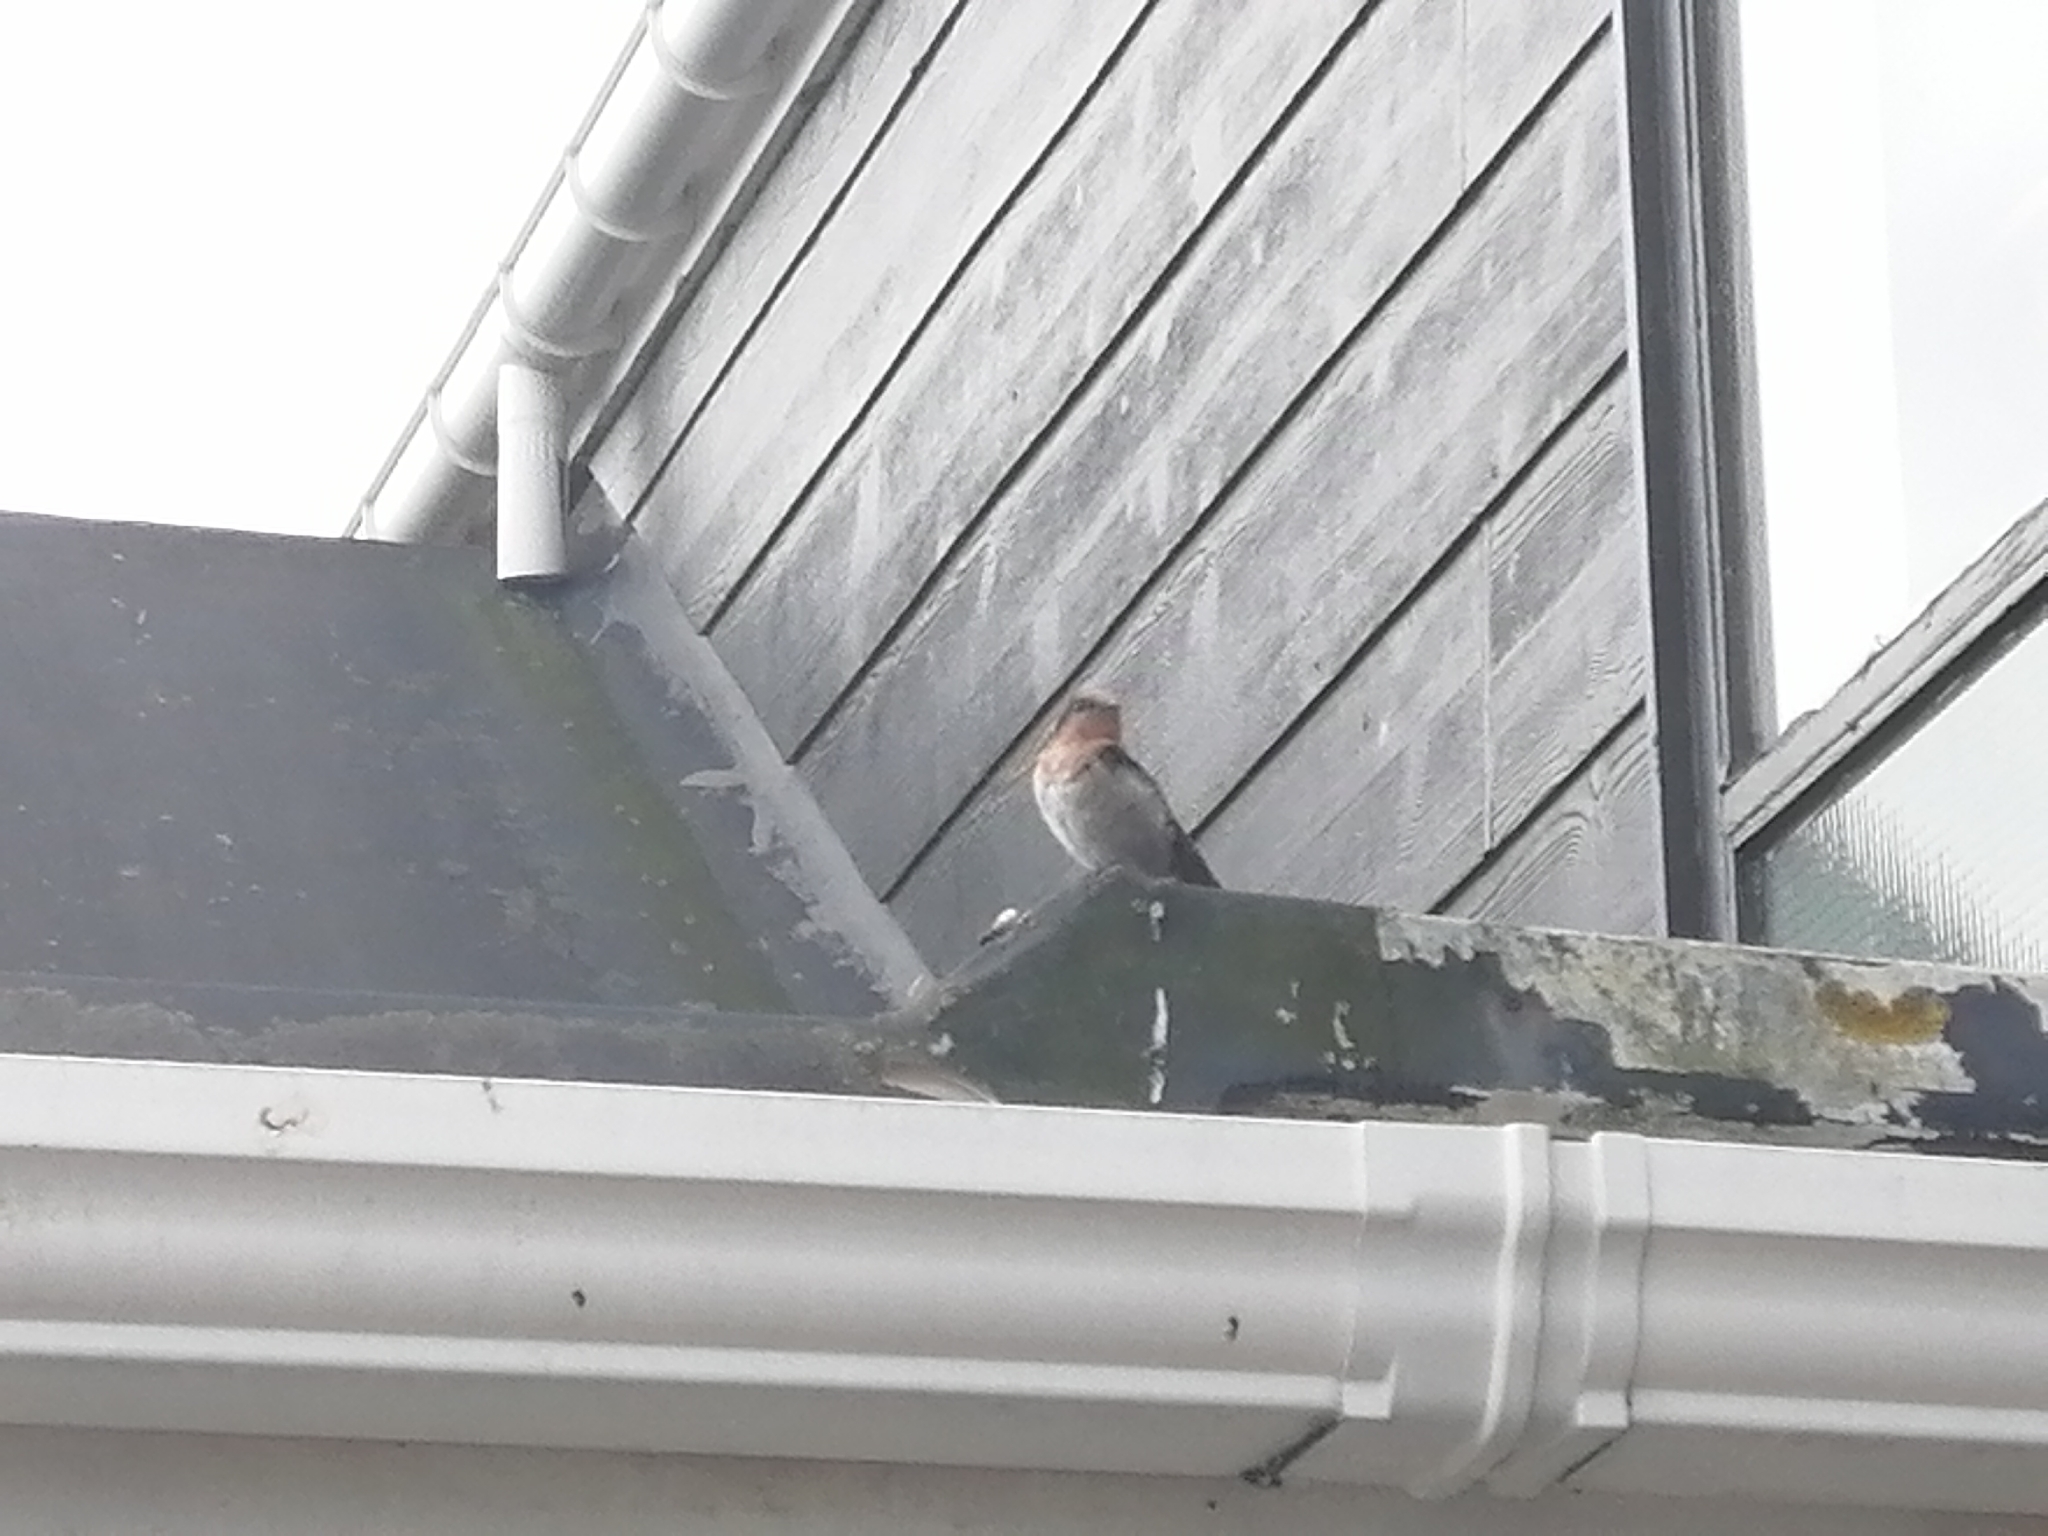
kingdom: Animalia
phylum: Chordata
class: Aves
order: Passeriformes
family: Hirundinidae
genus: Hirundo
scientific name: Hirundo neoxena
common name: Welcome swallow
